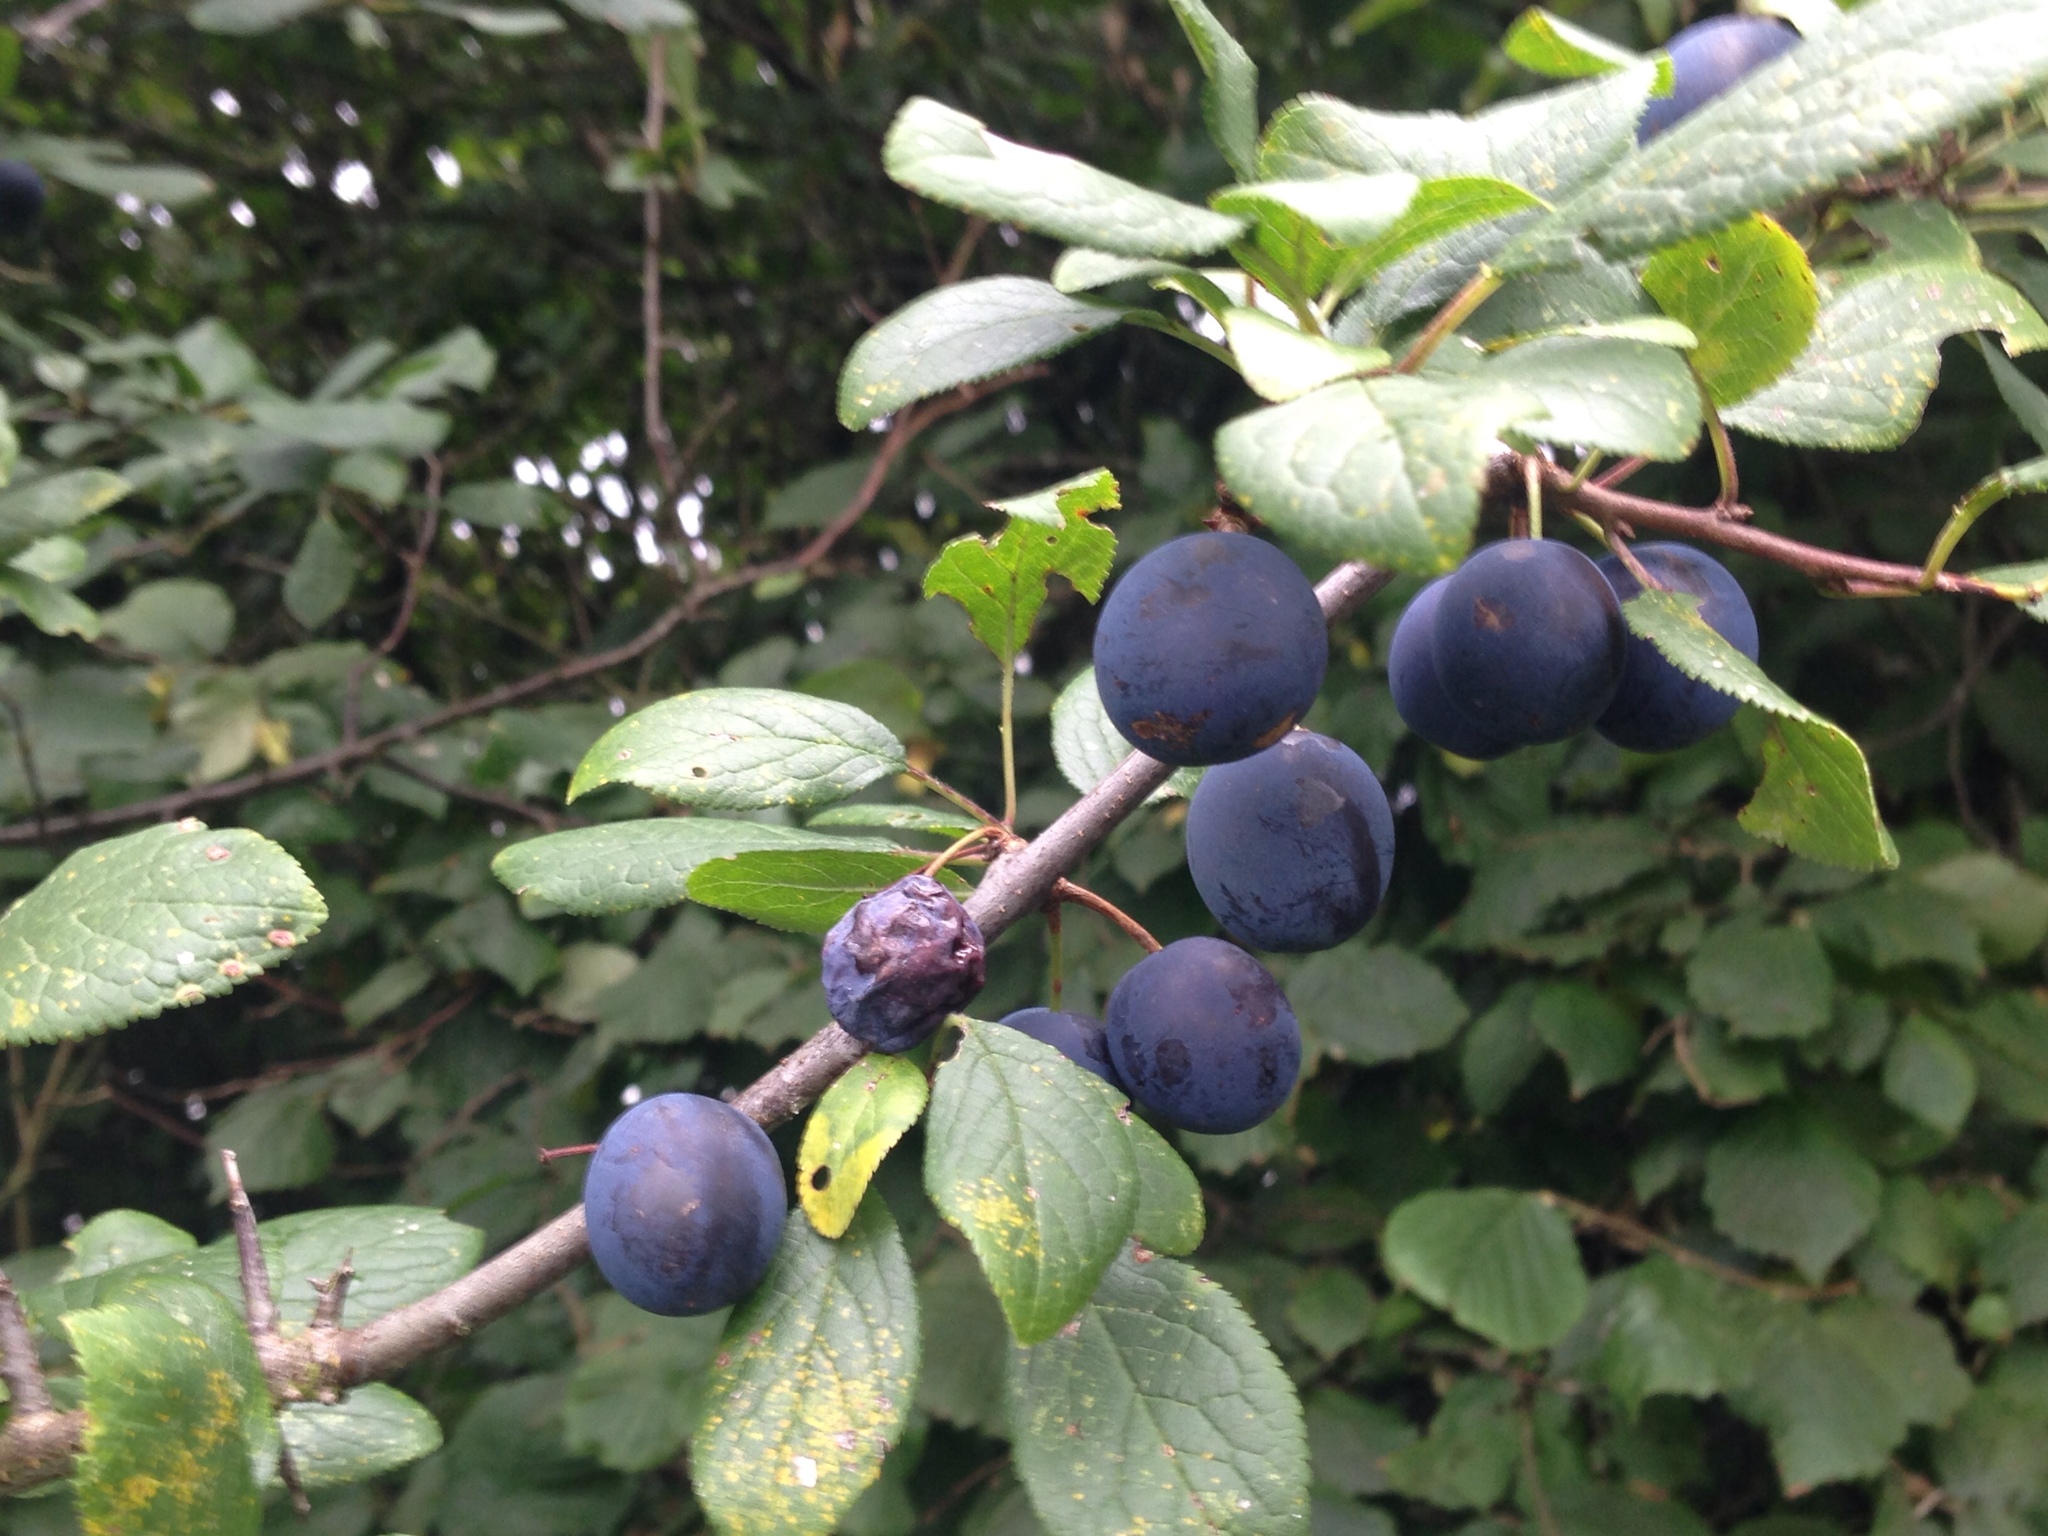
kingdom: Plantae
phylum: Tracheophyta
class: Magnoliopsida
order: Rosales
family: Rosaceae
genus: Prunus
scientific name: Prunus spinosa
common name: Blackthorn
